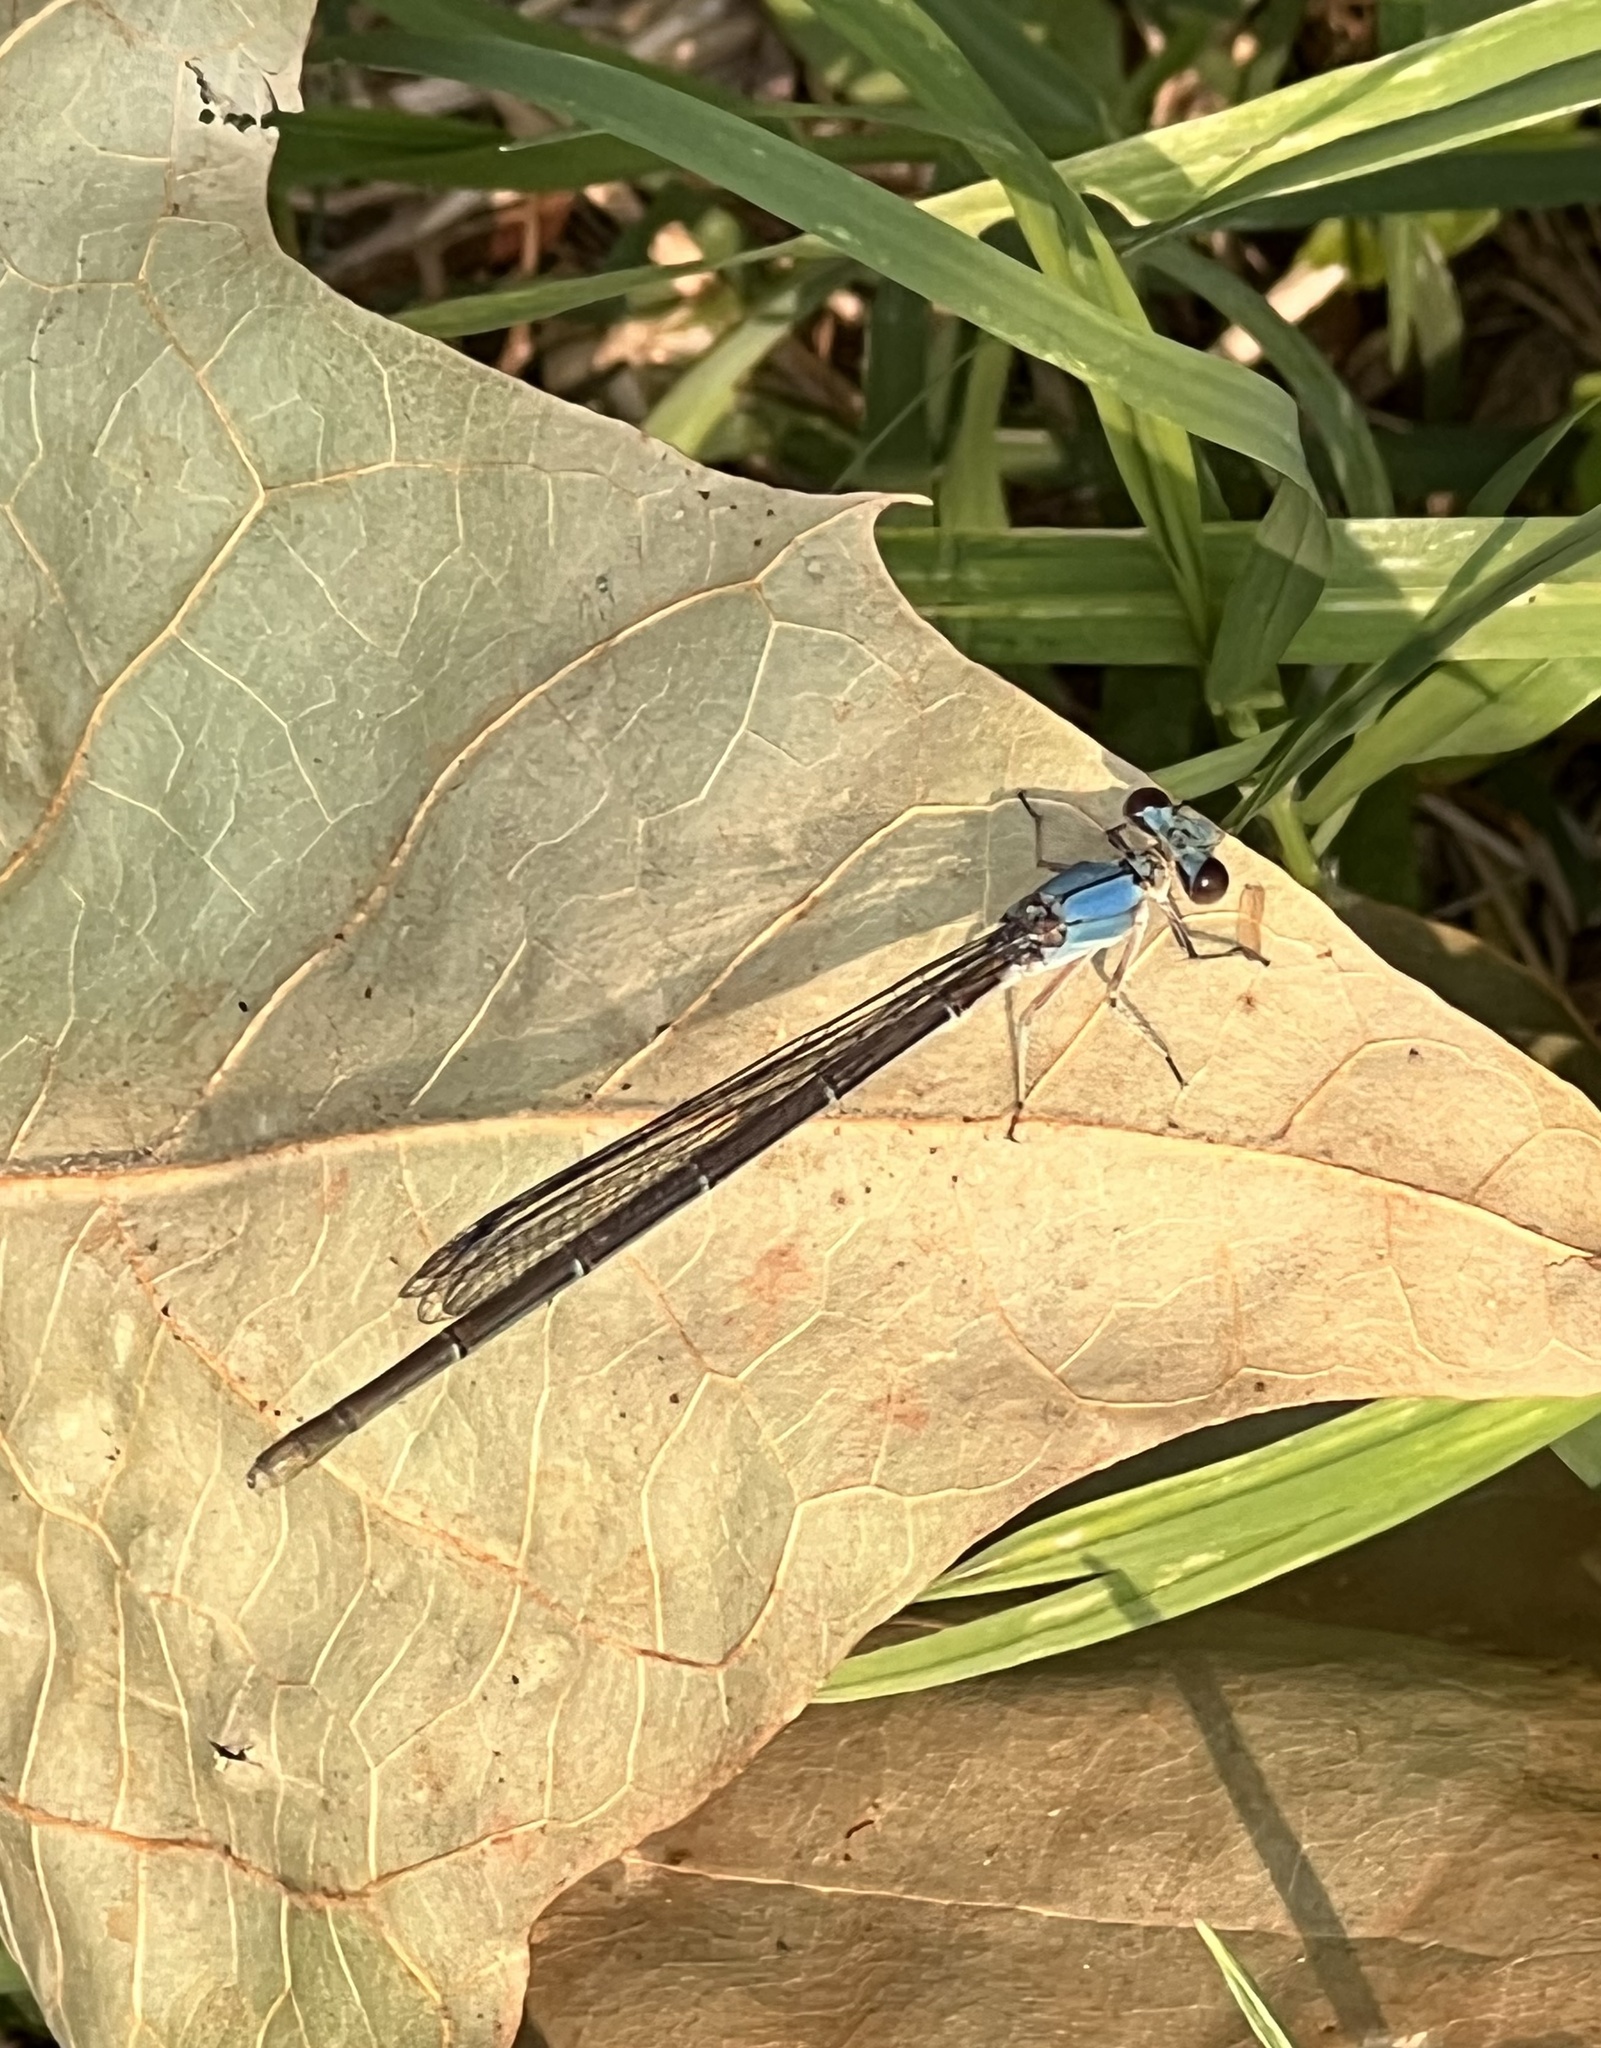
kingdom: Animalia
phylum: Arthropoda
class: Insecta
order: Odonata
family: Coenagrionidae
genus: Argia
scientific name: Argia apicalis
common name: Blue-fronted dancer
